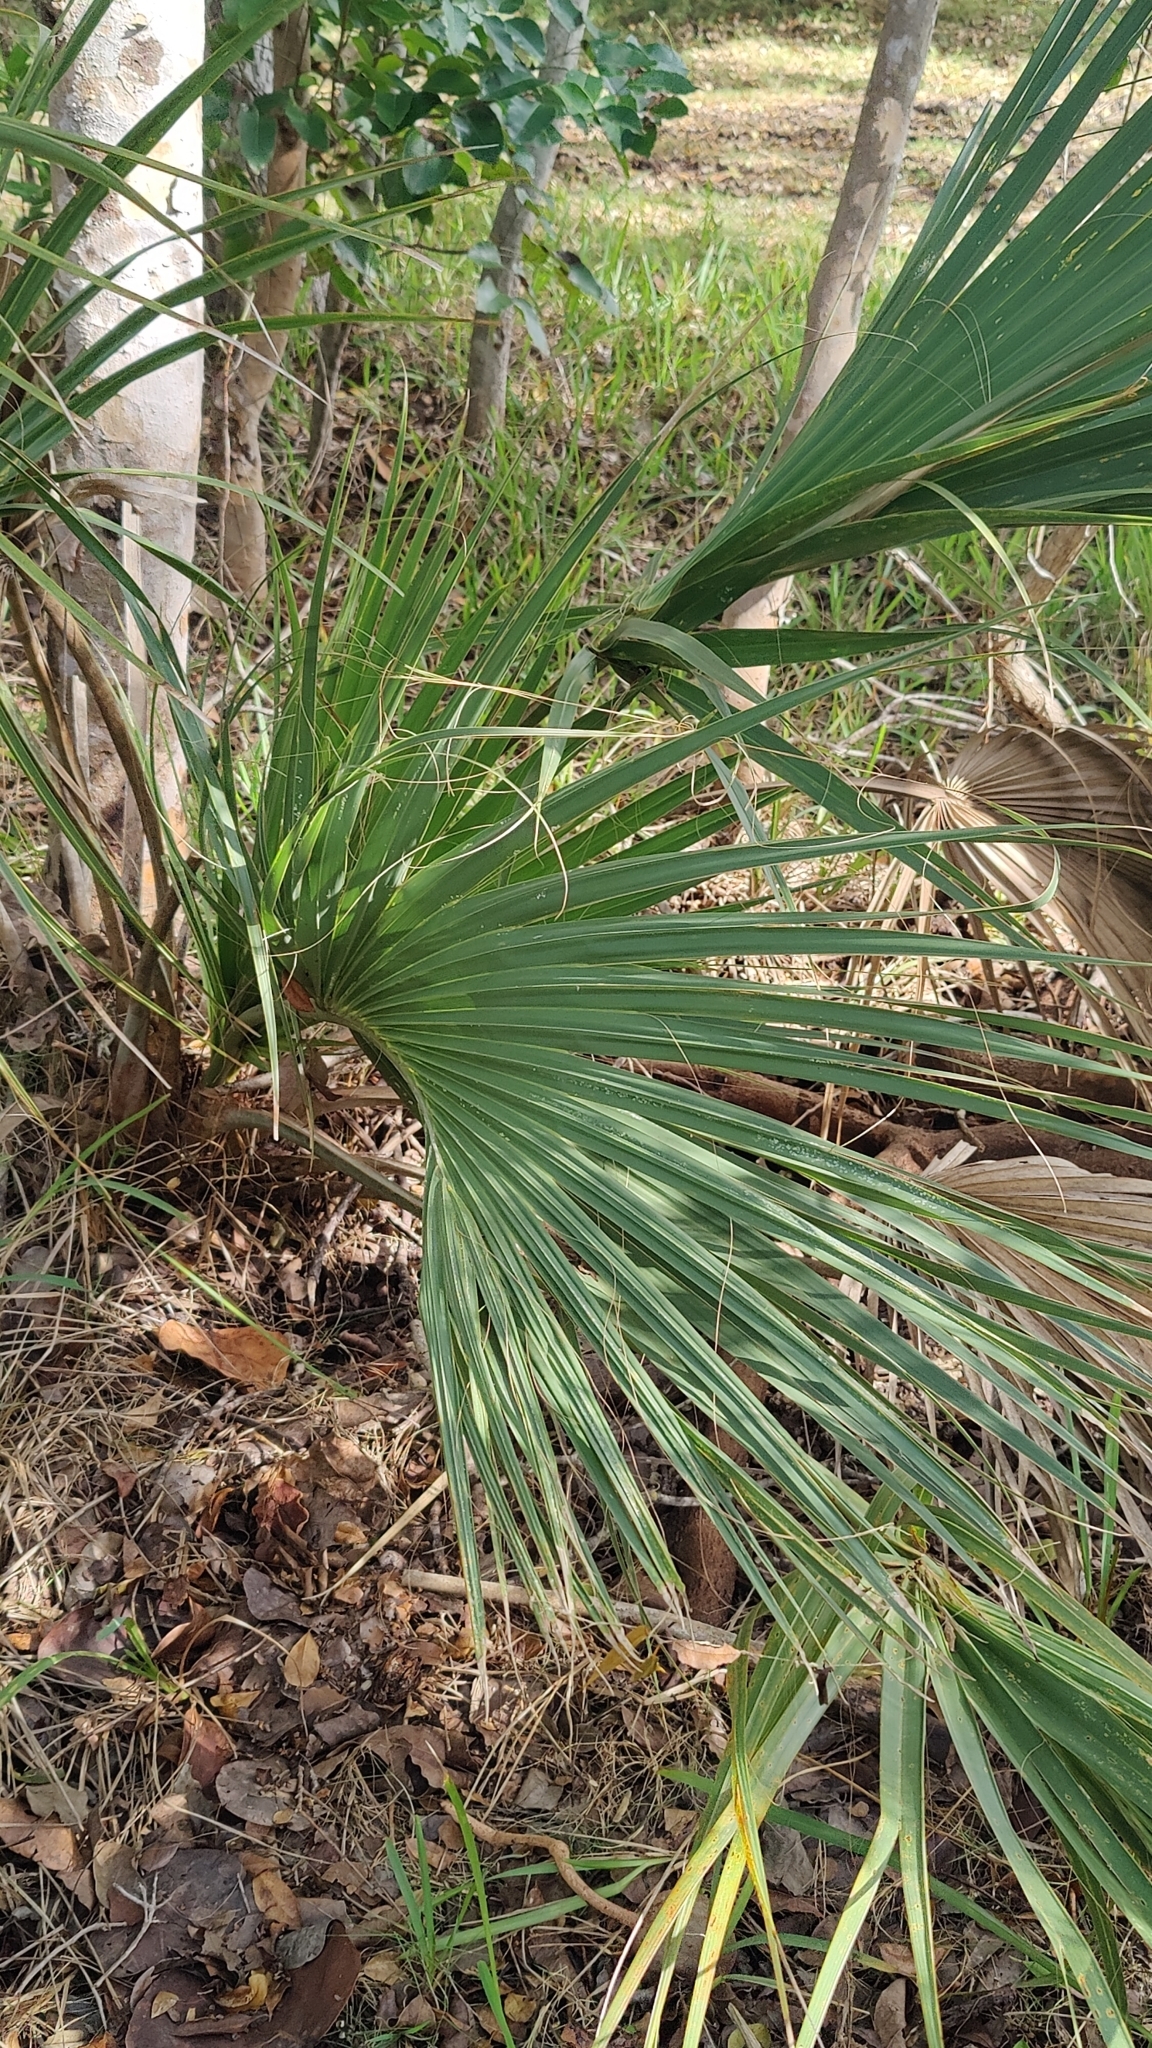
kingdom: Plantae
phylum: Tracheophyta
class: Liliopsida
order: Arecales
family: Arecaceae
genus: Sabal
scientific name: Sabal palmetto
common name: Blue palmetto
